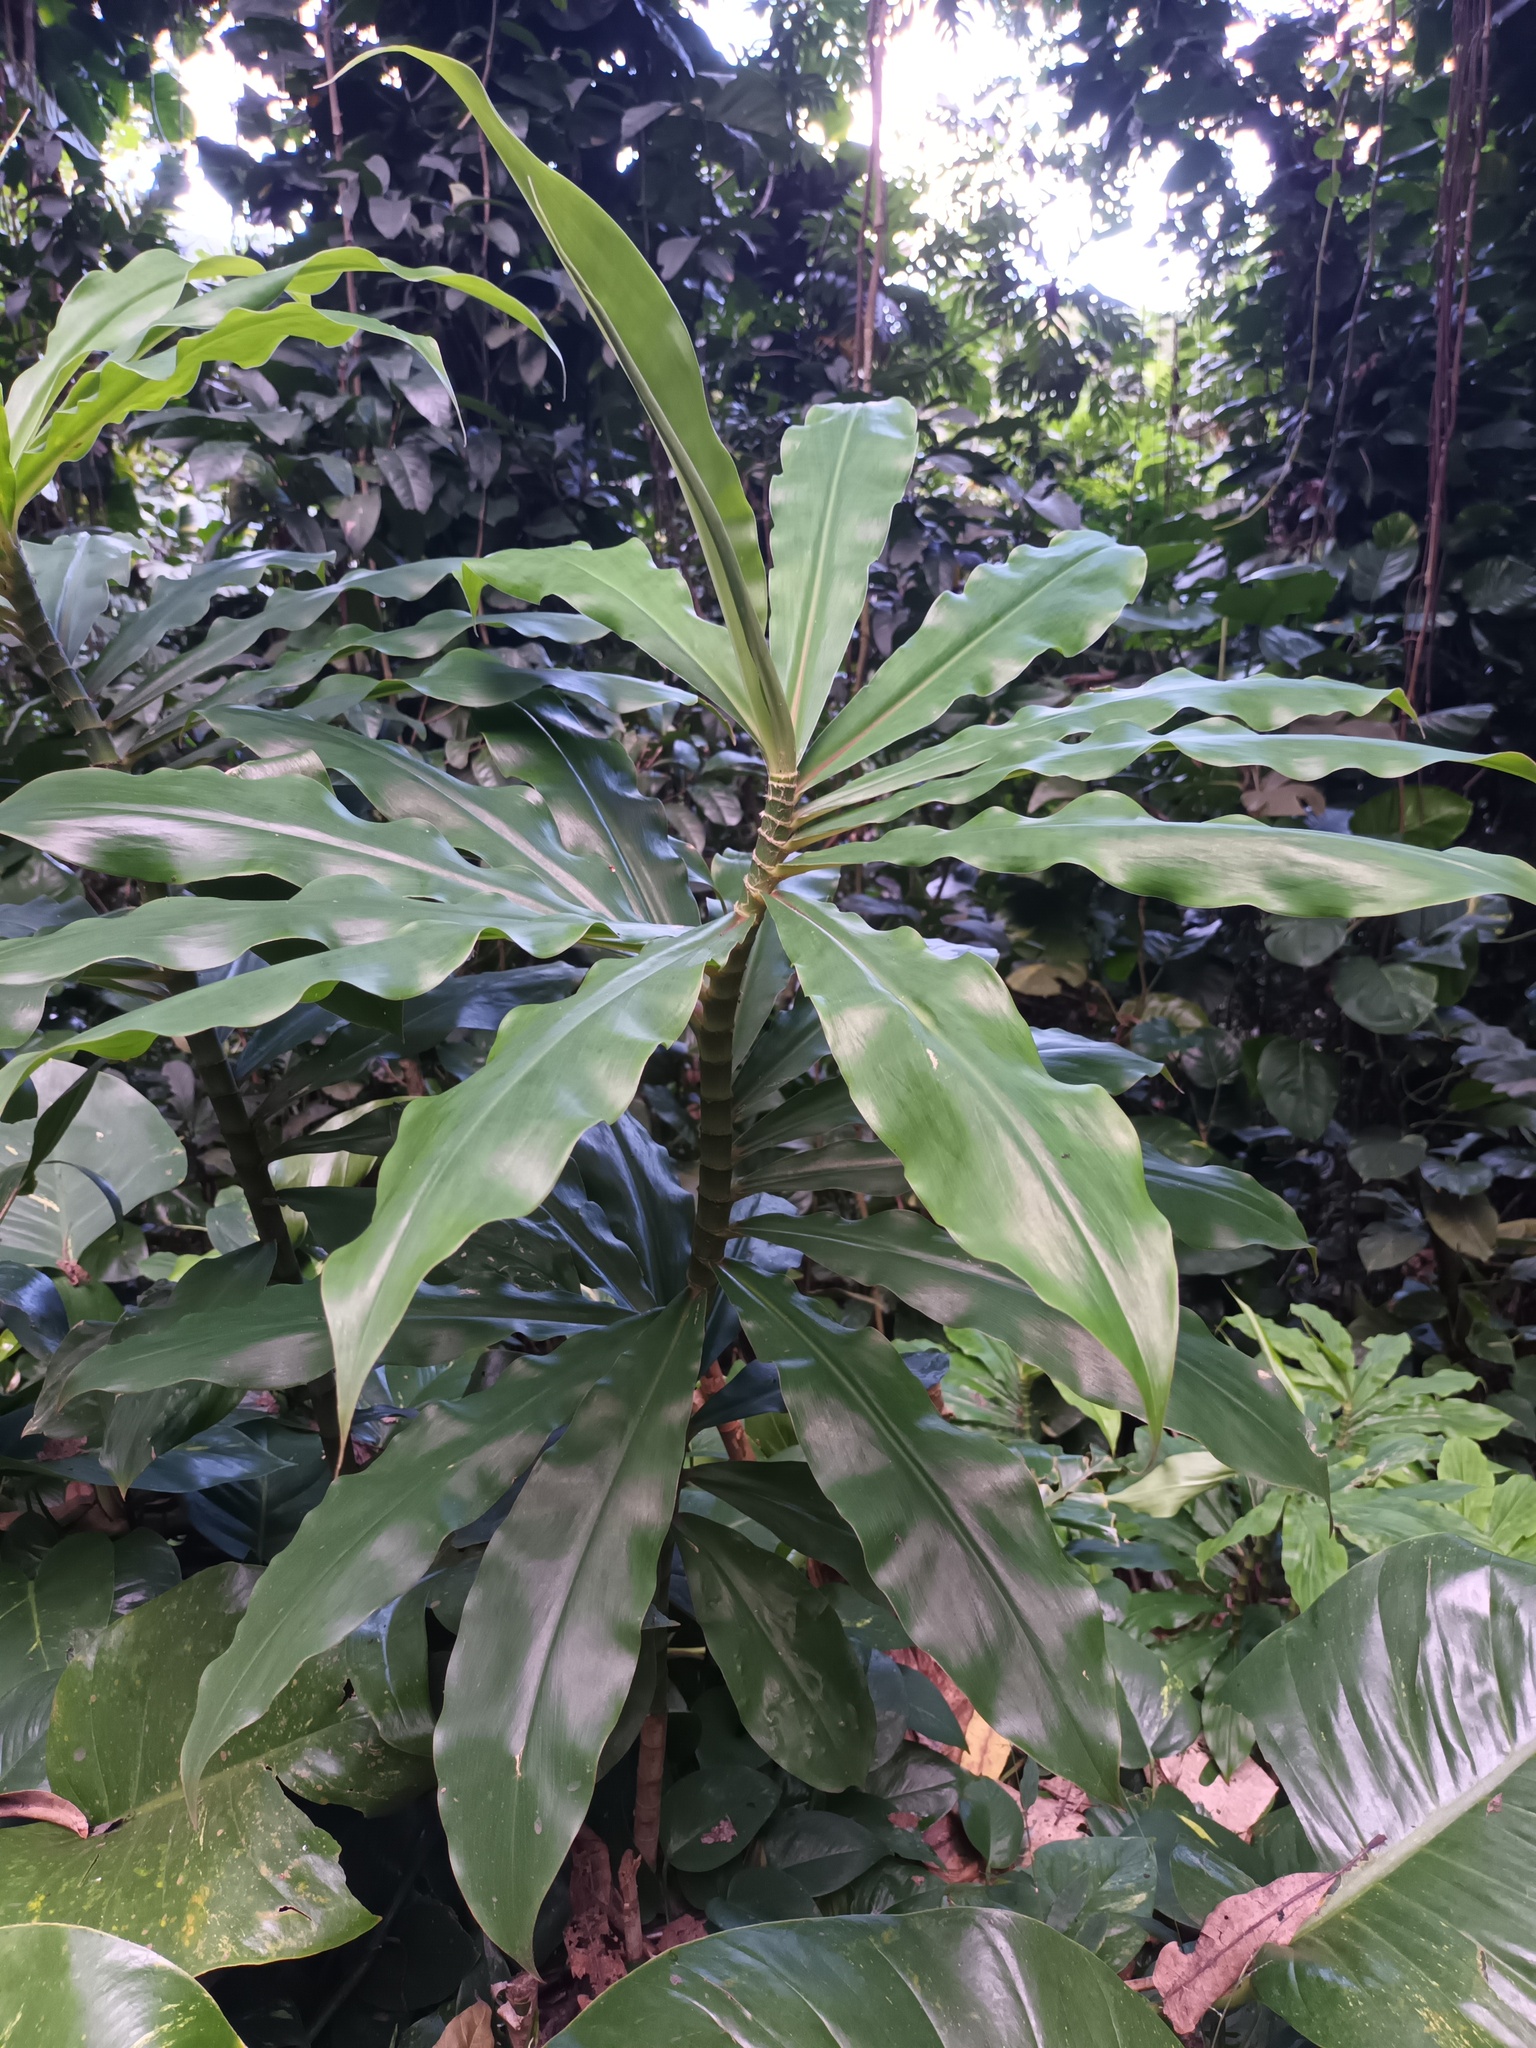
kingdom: Plantae
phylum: Tracheophyta
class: Liliopsida
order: Zingiberales
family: Costaceae
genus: Dimerocostus
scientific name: Dimerocostus strobilaceus
